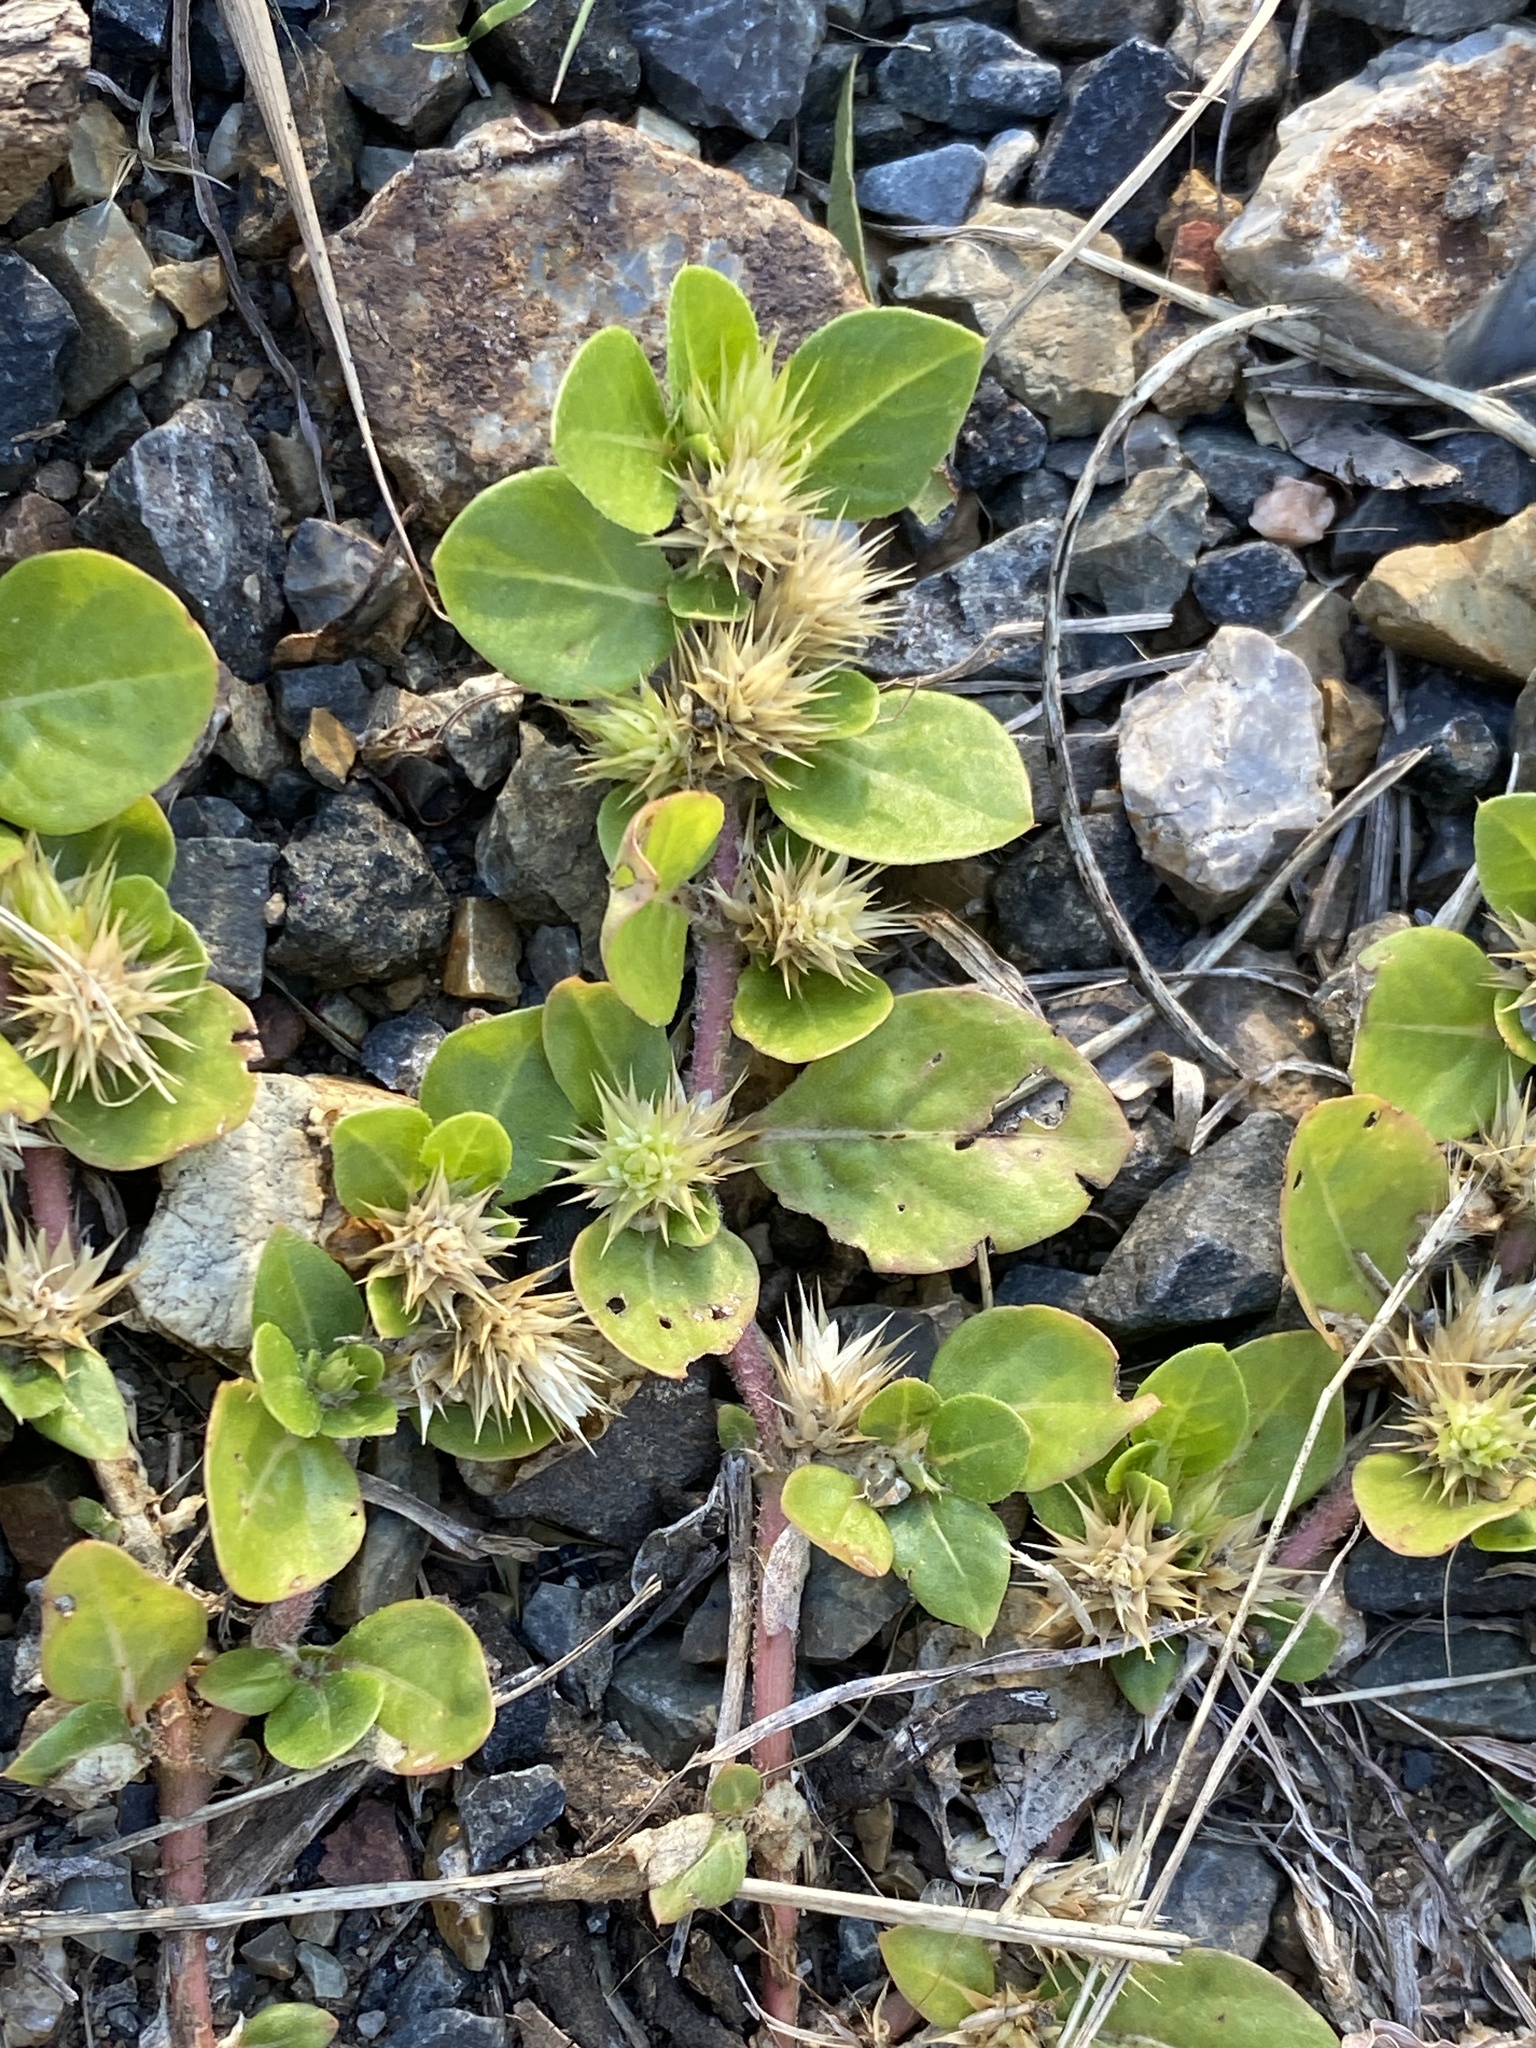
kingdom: Plantae
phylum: Tracheophyta
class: Magnoliopsida
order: Caryophyllales
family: Amaranthaceae
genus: Alternanthera
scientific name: Alternanthera pungens
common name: Khakiweed
